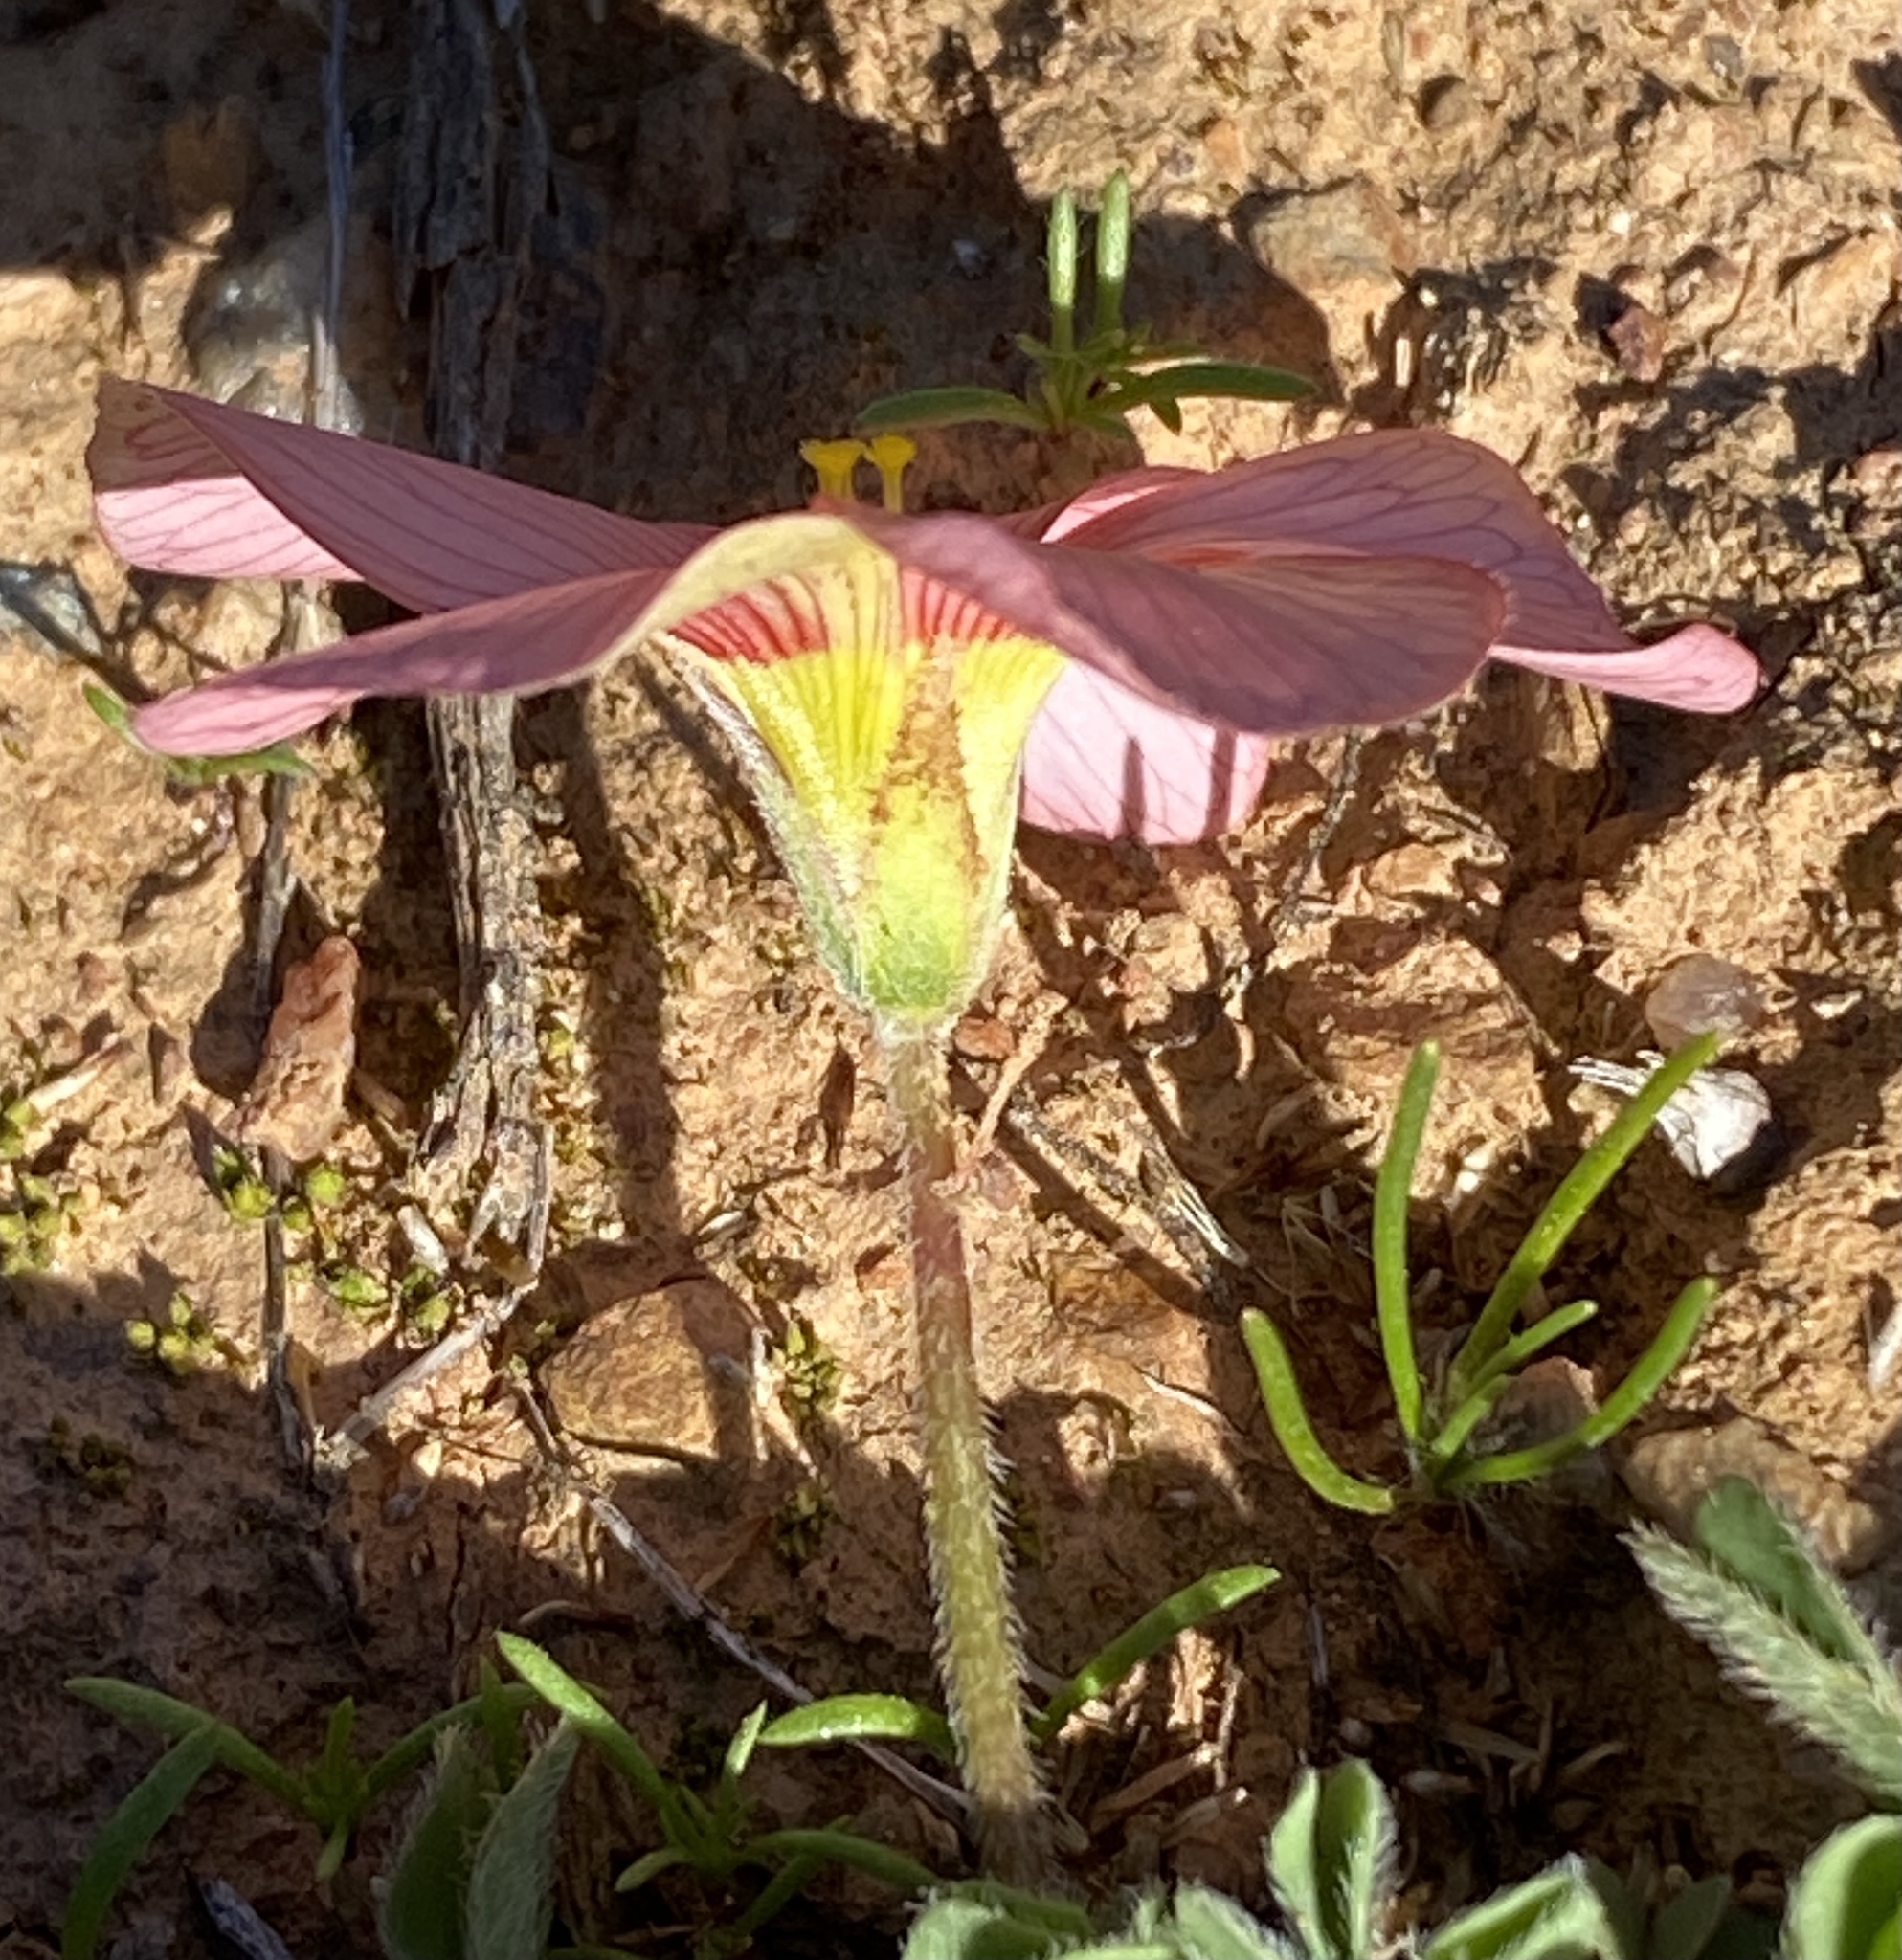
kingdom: Plantae
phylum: Tracheophyta
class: Magnoliopsida
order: Oxalidales
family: Oxalidaceae
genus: Oxalis
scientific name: Oxalis obtusa
